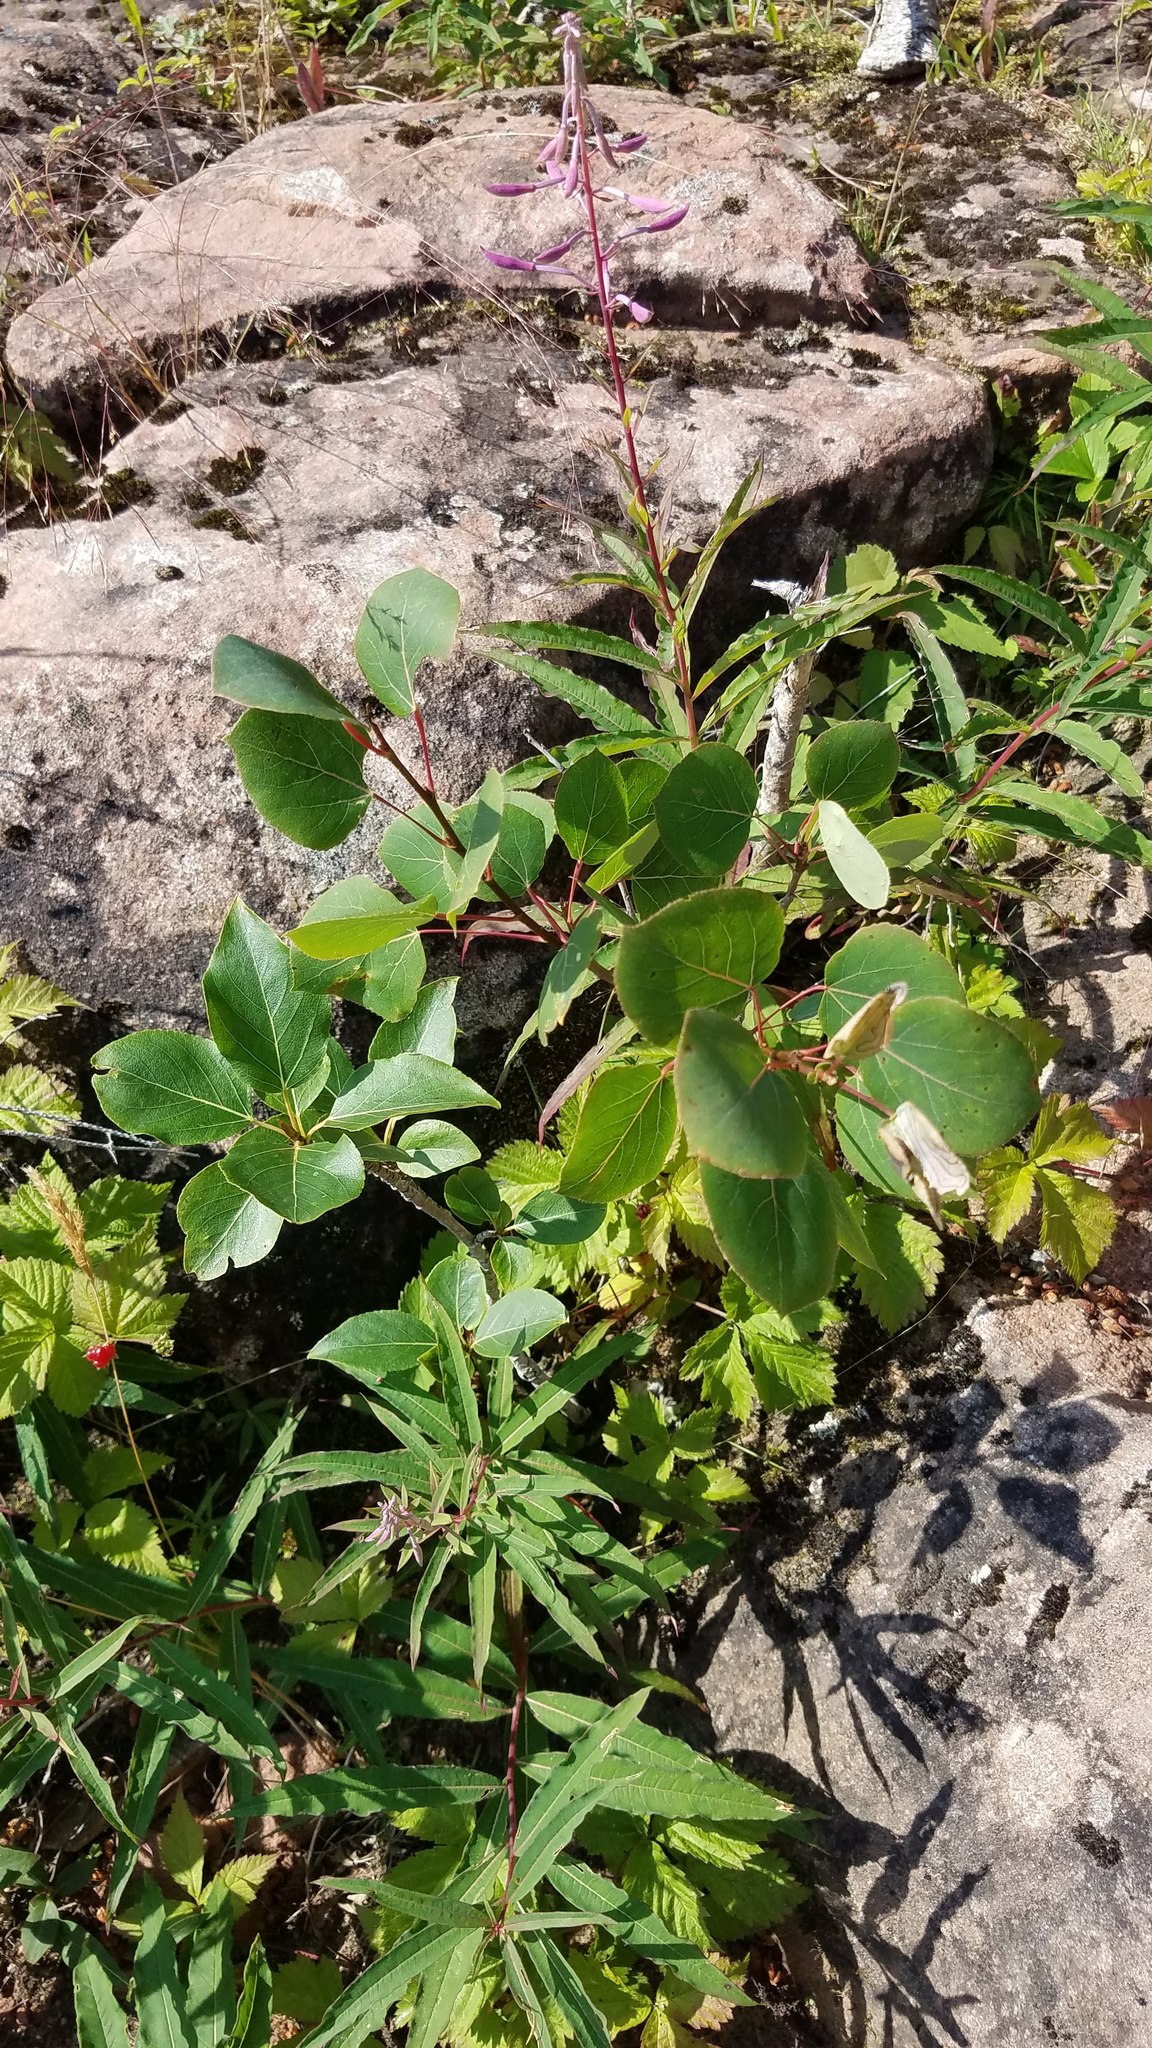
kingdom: Plantae
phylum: Tracheophyta
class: Magnoliopsida
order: Malpighiales
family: Salicaceae
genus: Populus
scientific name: Populus tremuloides
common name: Quaking aspen
